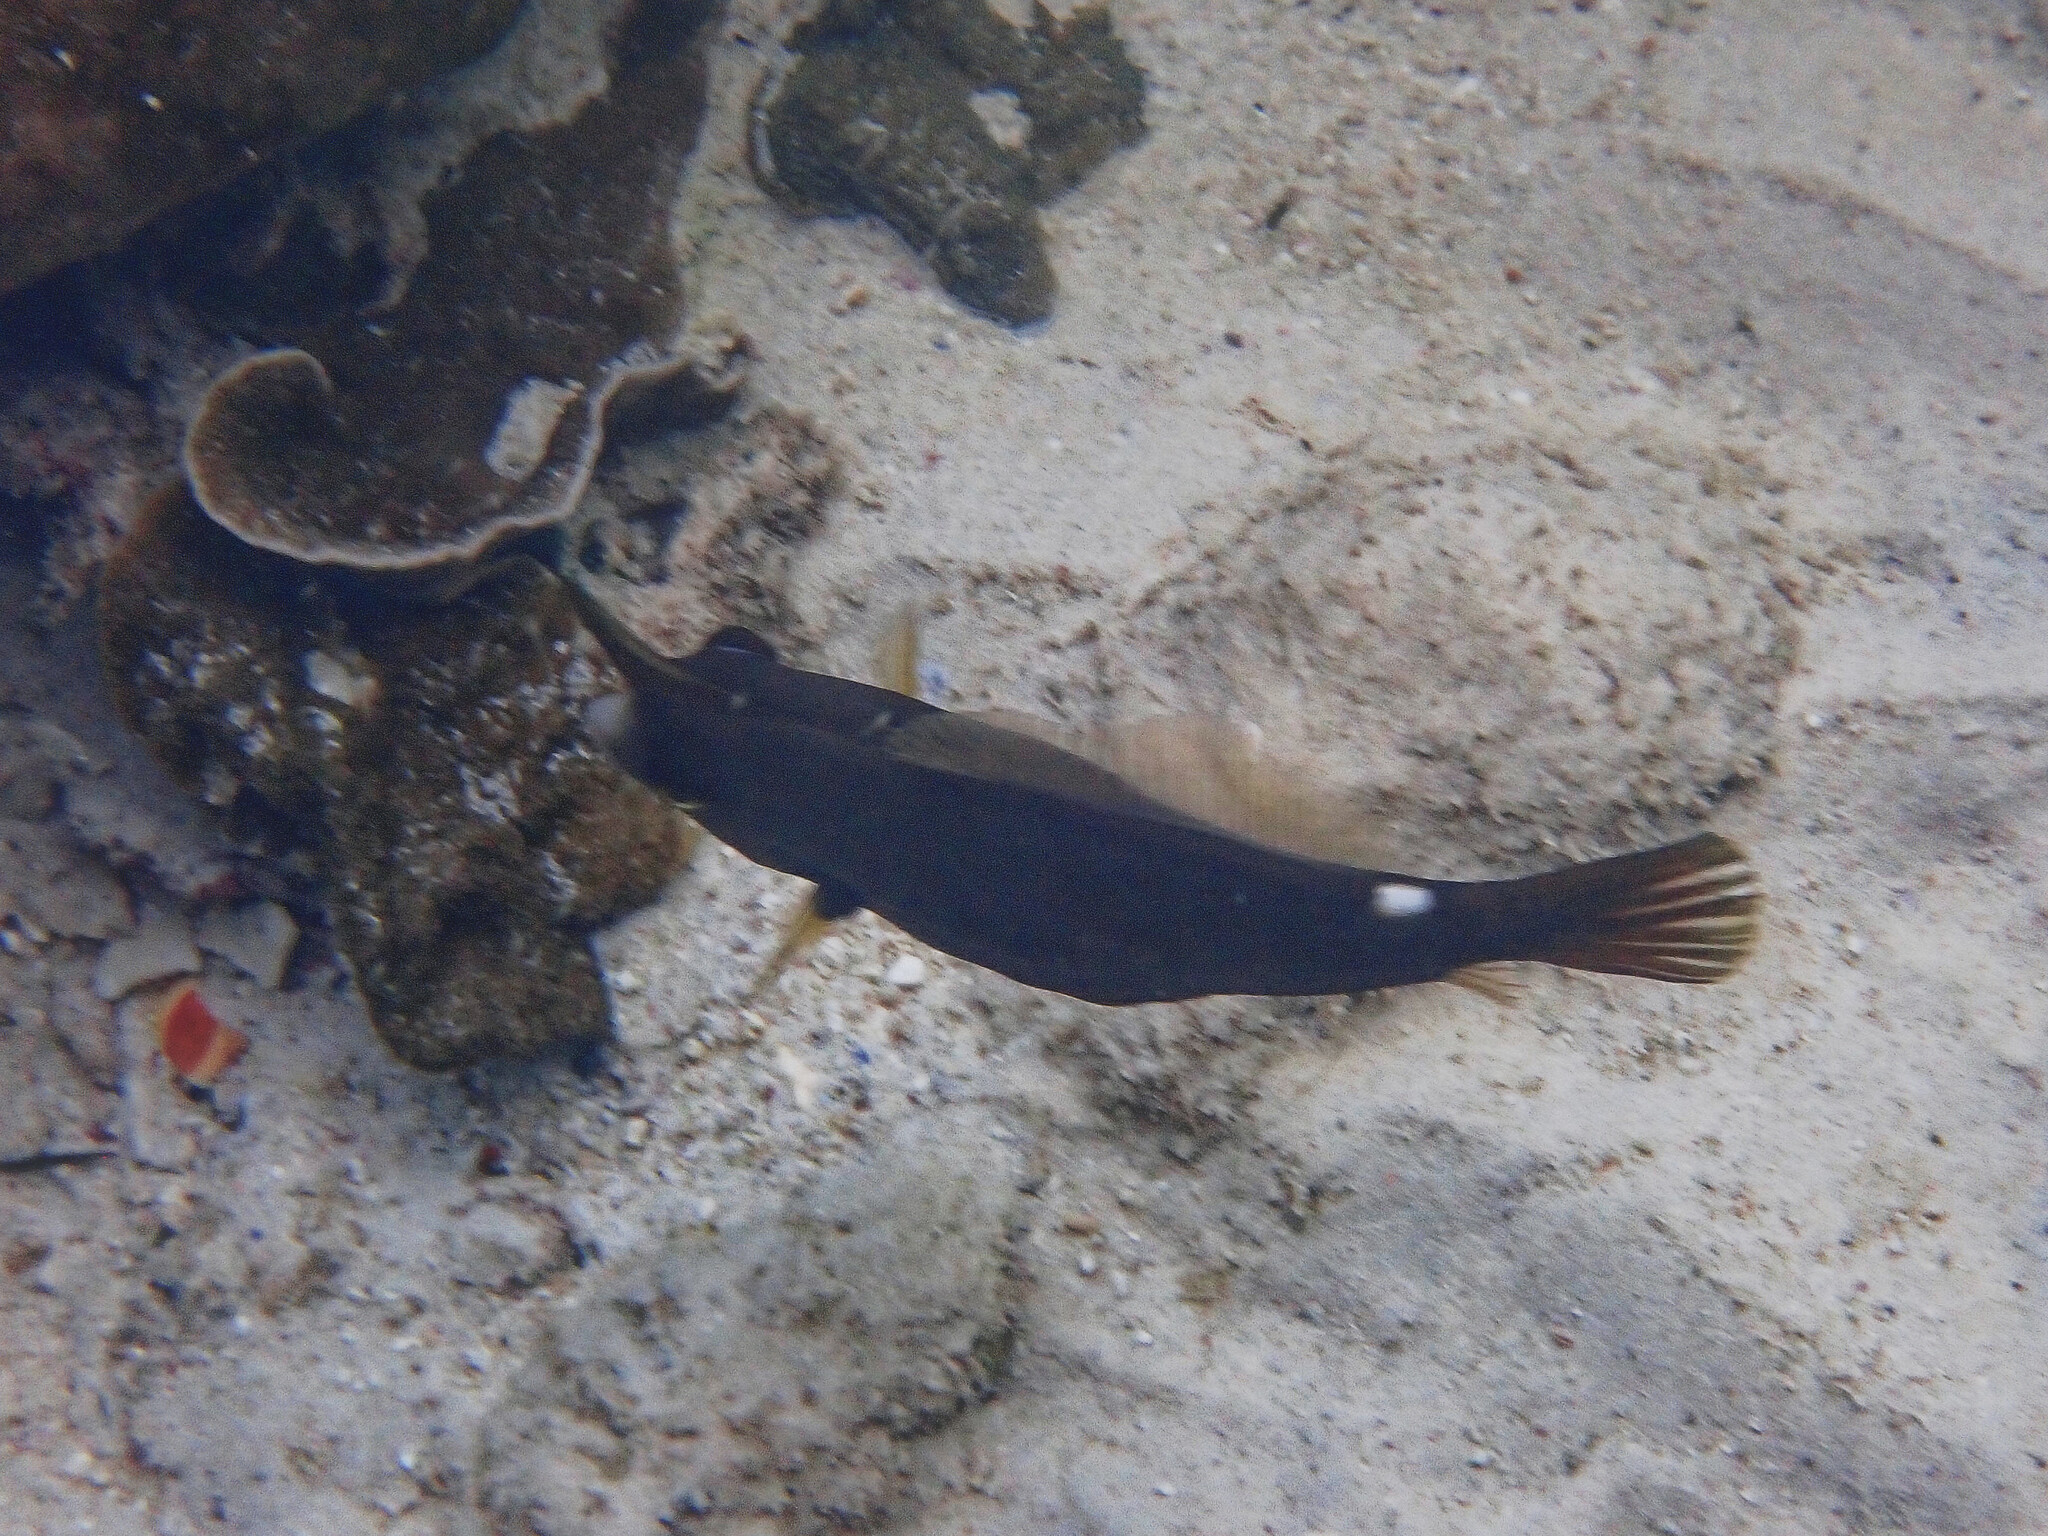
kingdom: Animalia
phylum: Chordata
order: Tetraodontiformes
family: Monacanthidae
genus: Cantherhines
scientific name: Cantherhines pardalis
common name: Honeycomb filefish
